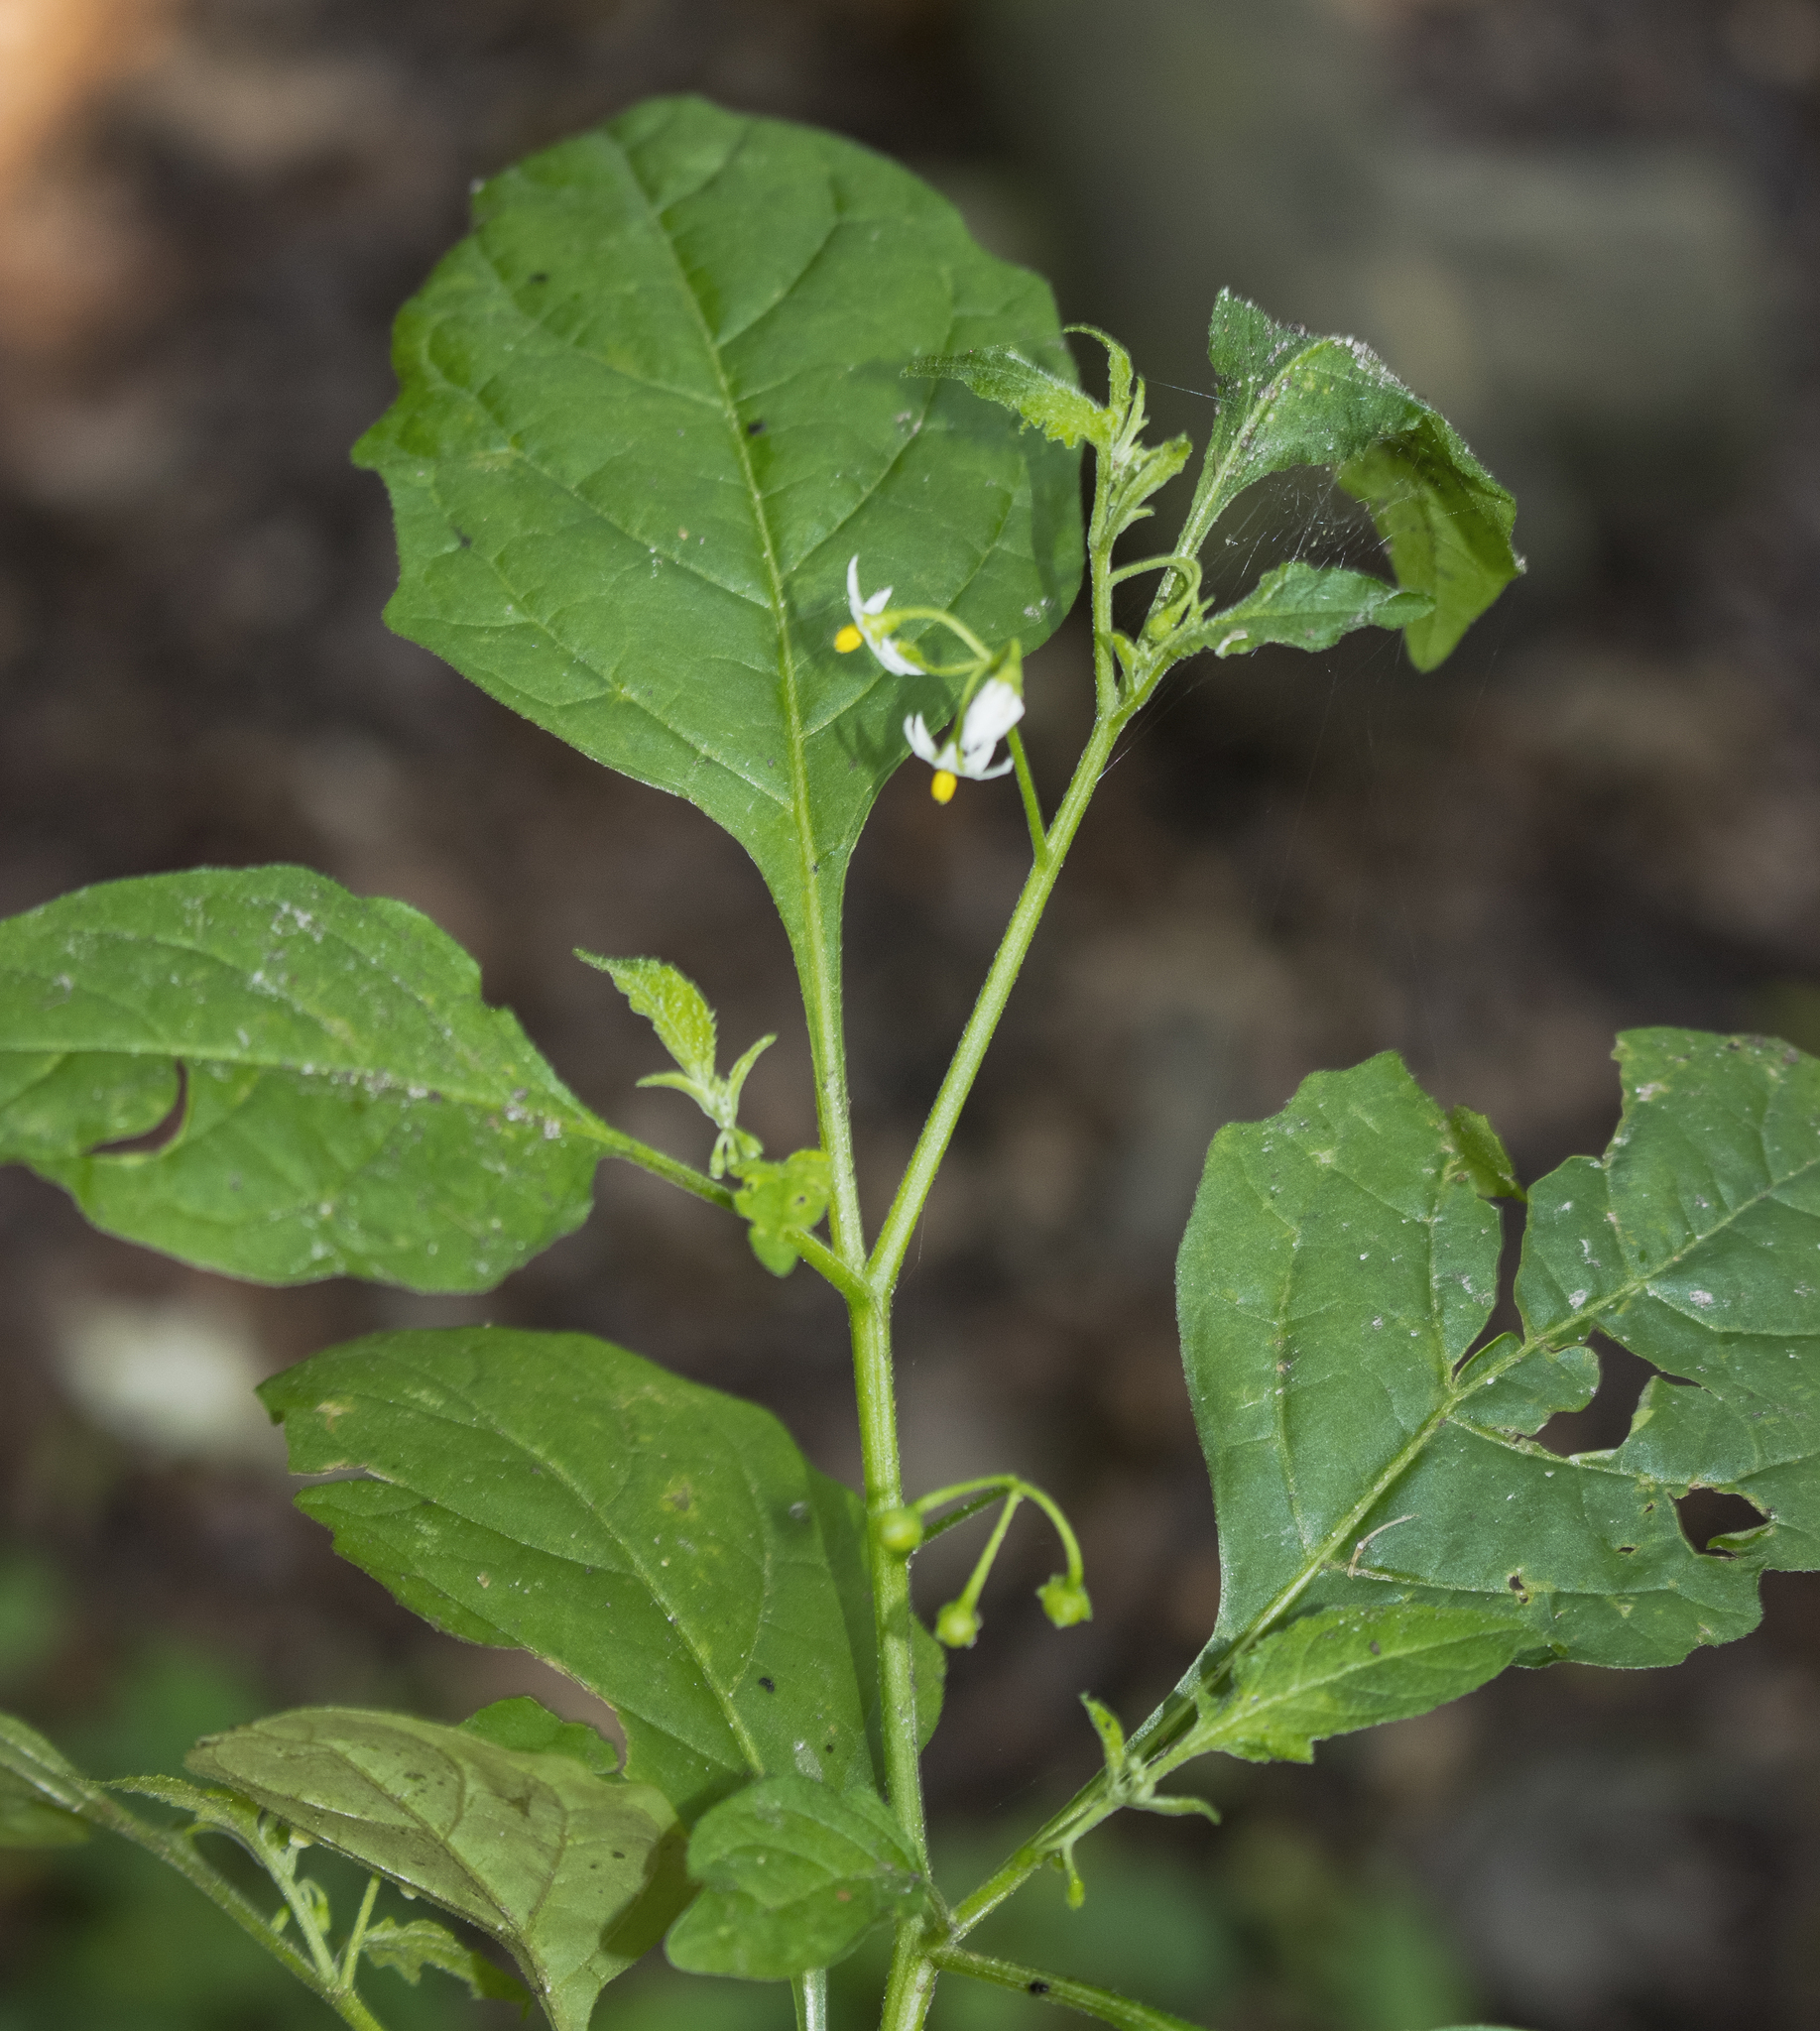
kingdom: Plantae
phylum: Tracheophyta
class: Magnoliopsida
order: Solanales
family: Solanaceae
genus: Solanum
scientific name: Solanum emulans
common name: Eastern black nightshade
